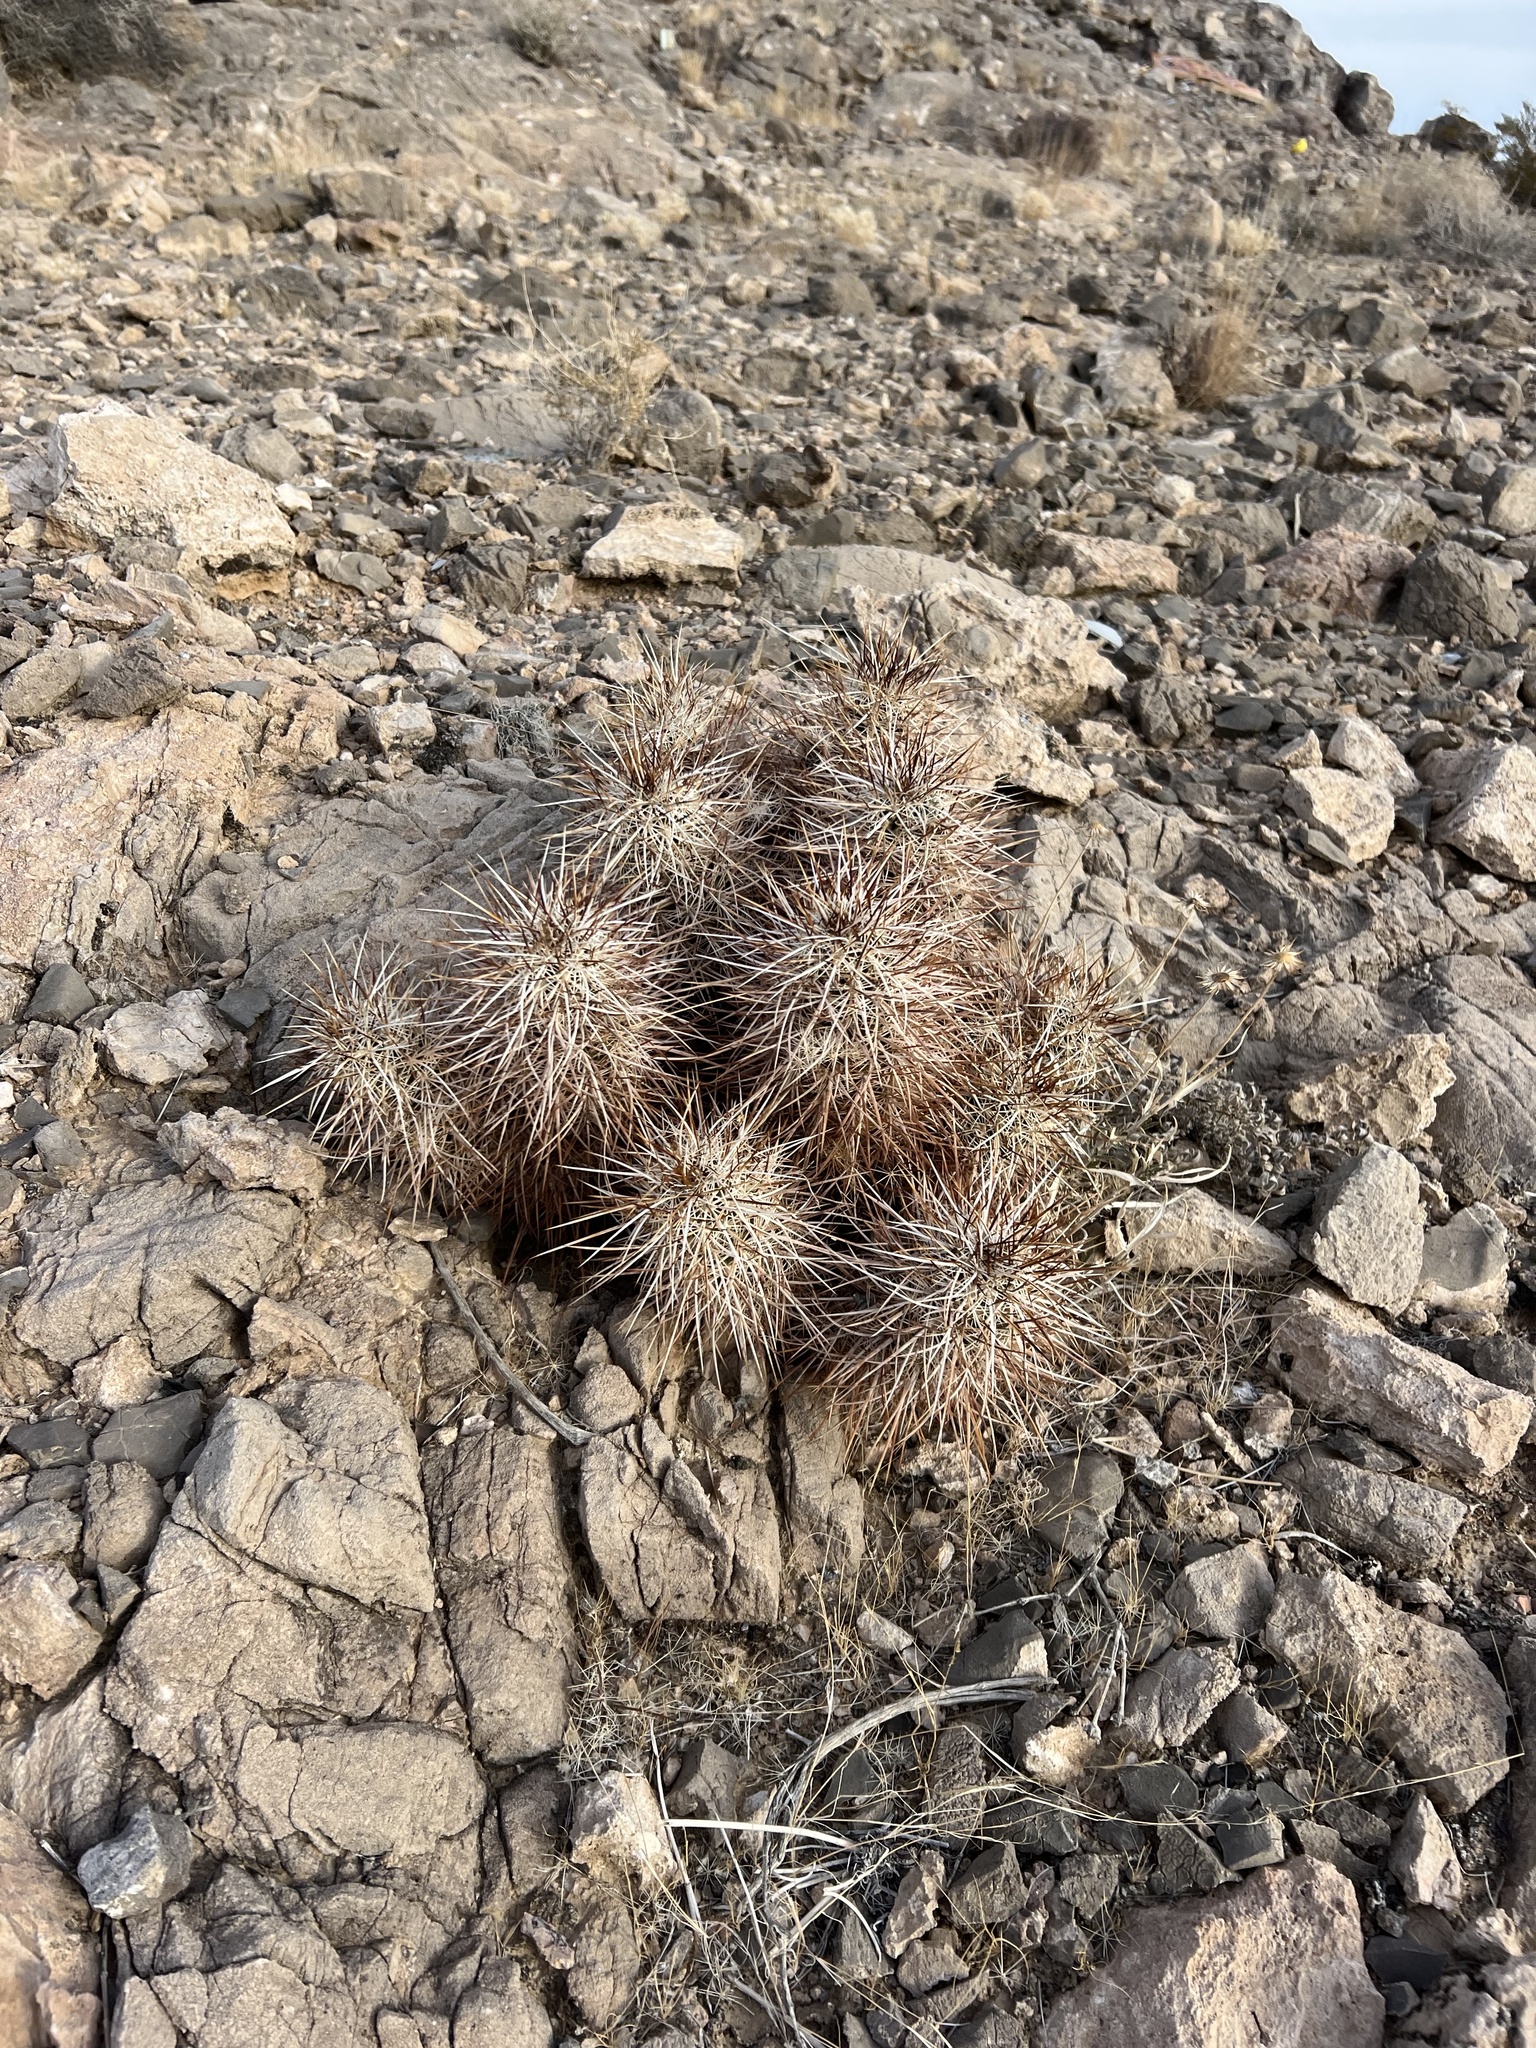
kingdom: Plantae
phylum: Tracheophyta
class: Magnoliopsida
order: Caryophyllales
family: Cactaceae
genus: Echinocereus
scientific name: Echinocereus engelmannii
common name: Engelmann's hedgehog cactus
